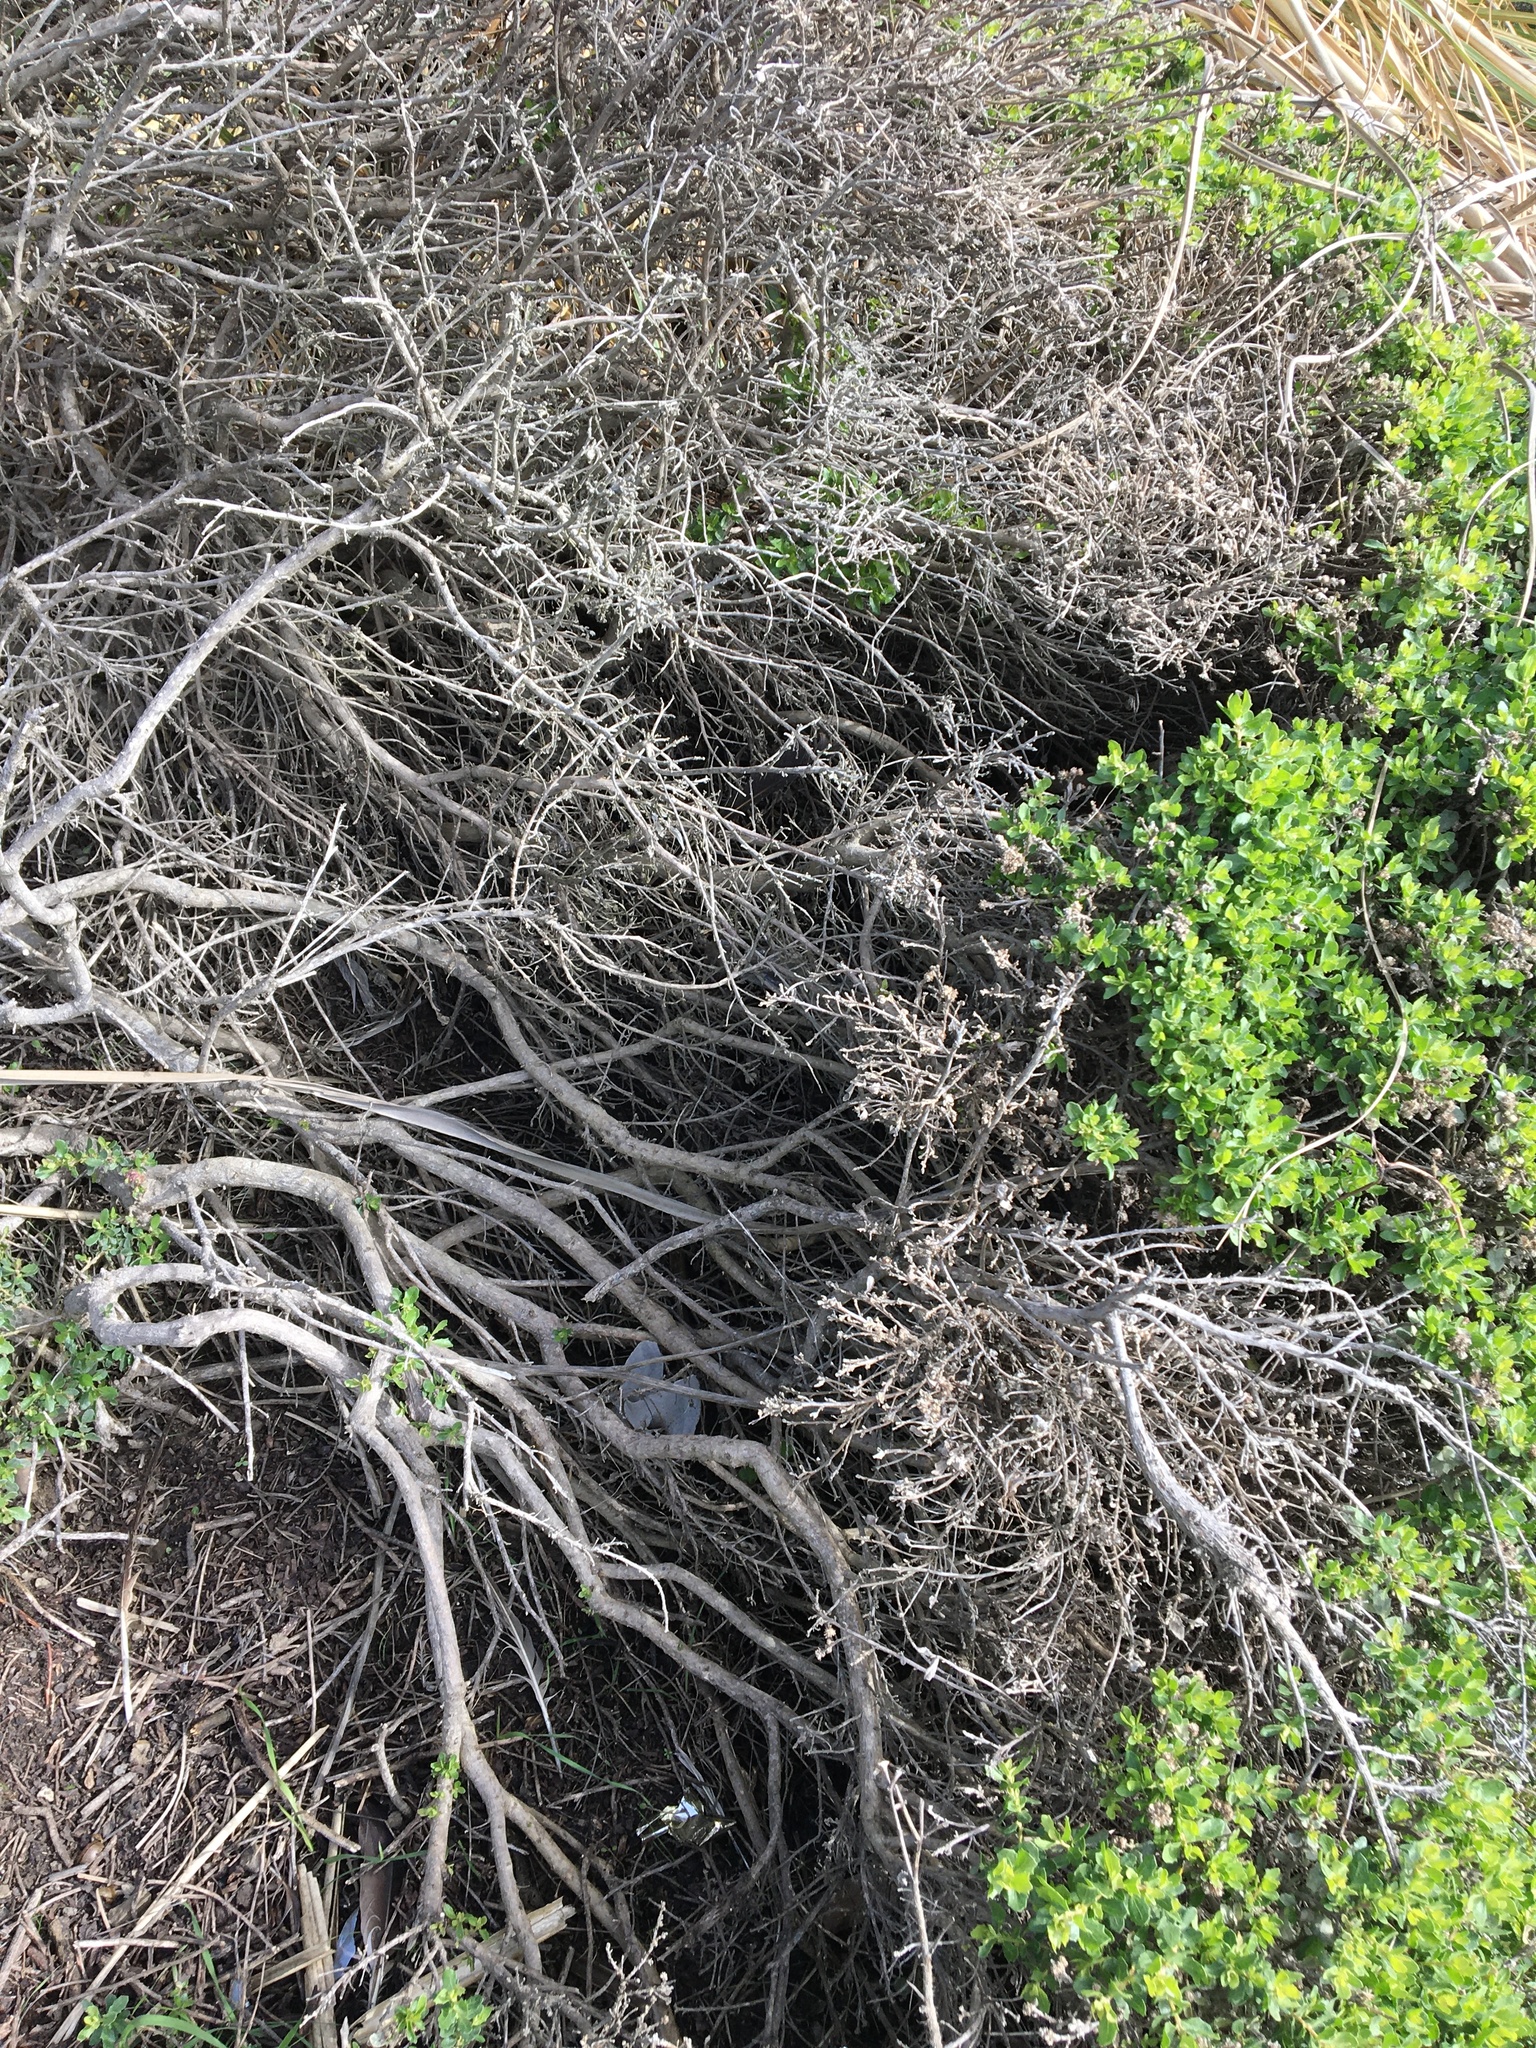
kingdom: Plantae
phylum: Tracheophyta
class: Magnoliopsida
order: Asterales
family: Asteraceae
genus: Baccharis
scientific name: Baccharis pilularis
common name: Coyotebrush
